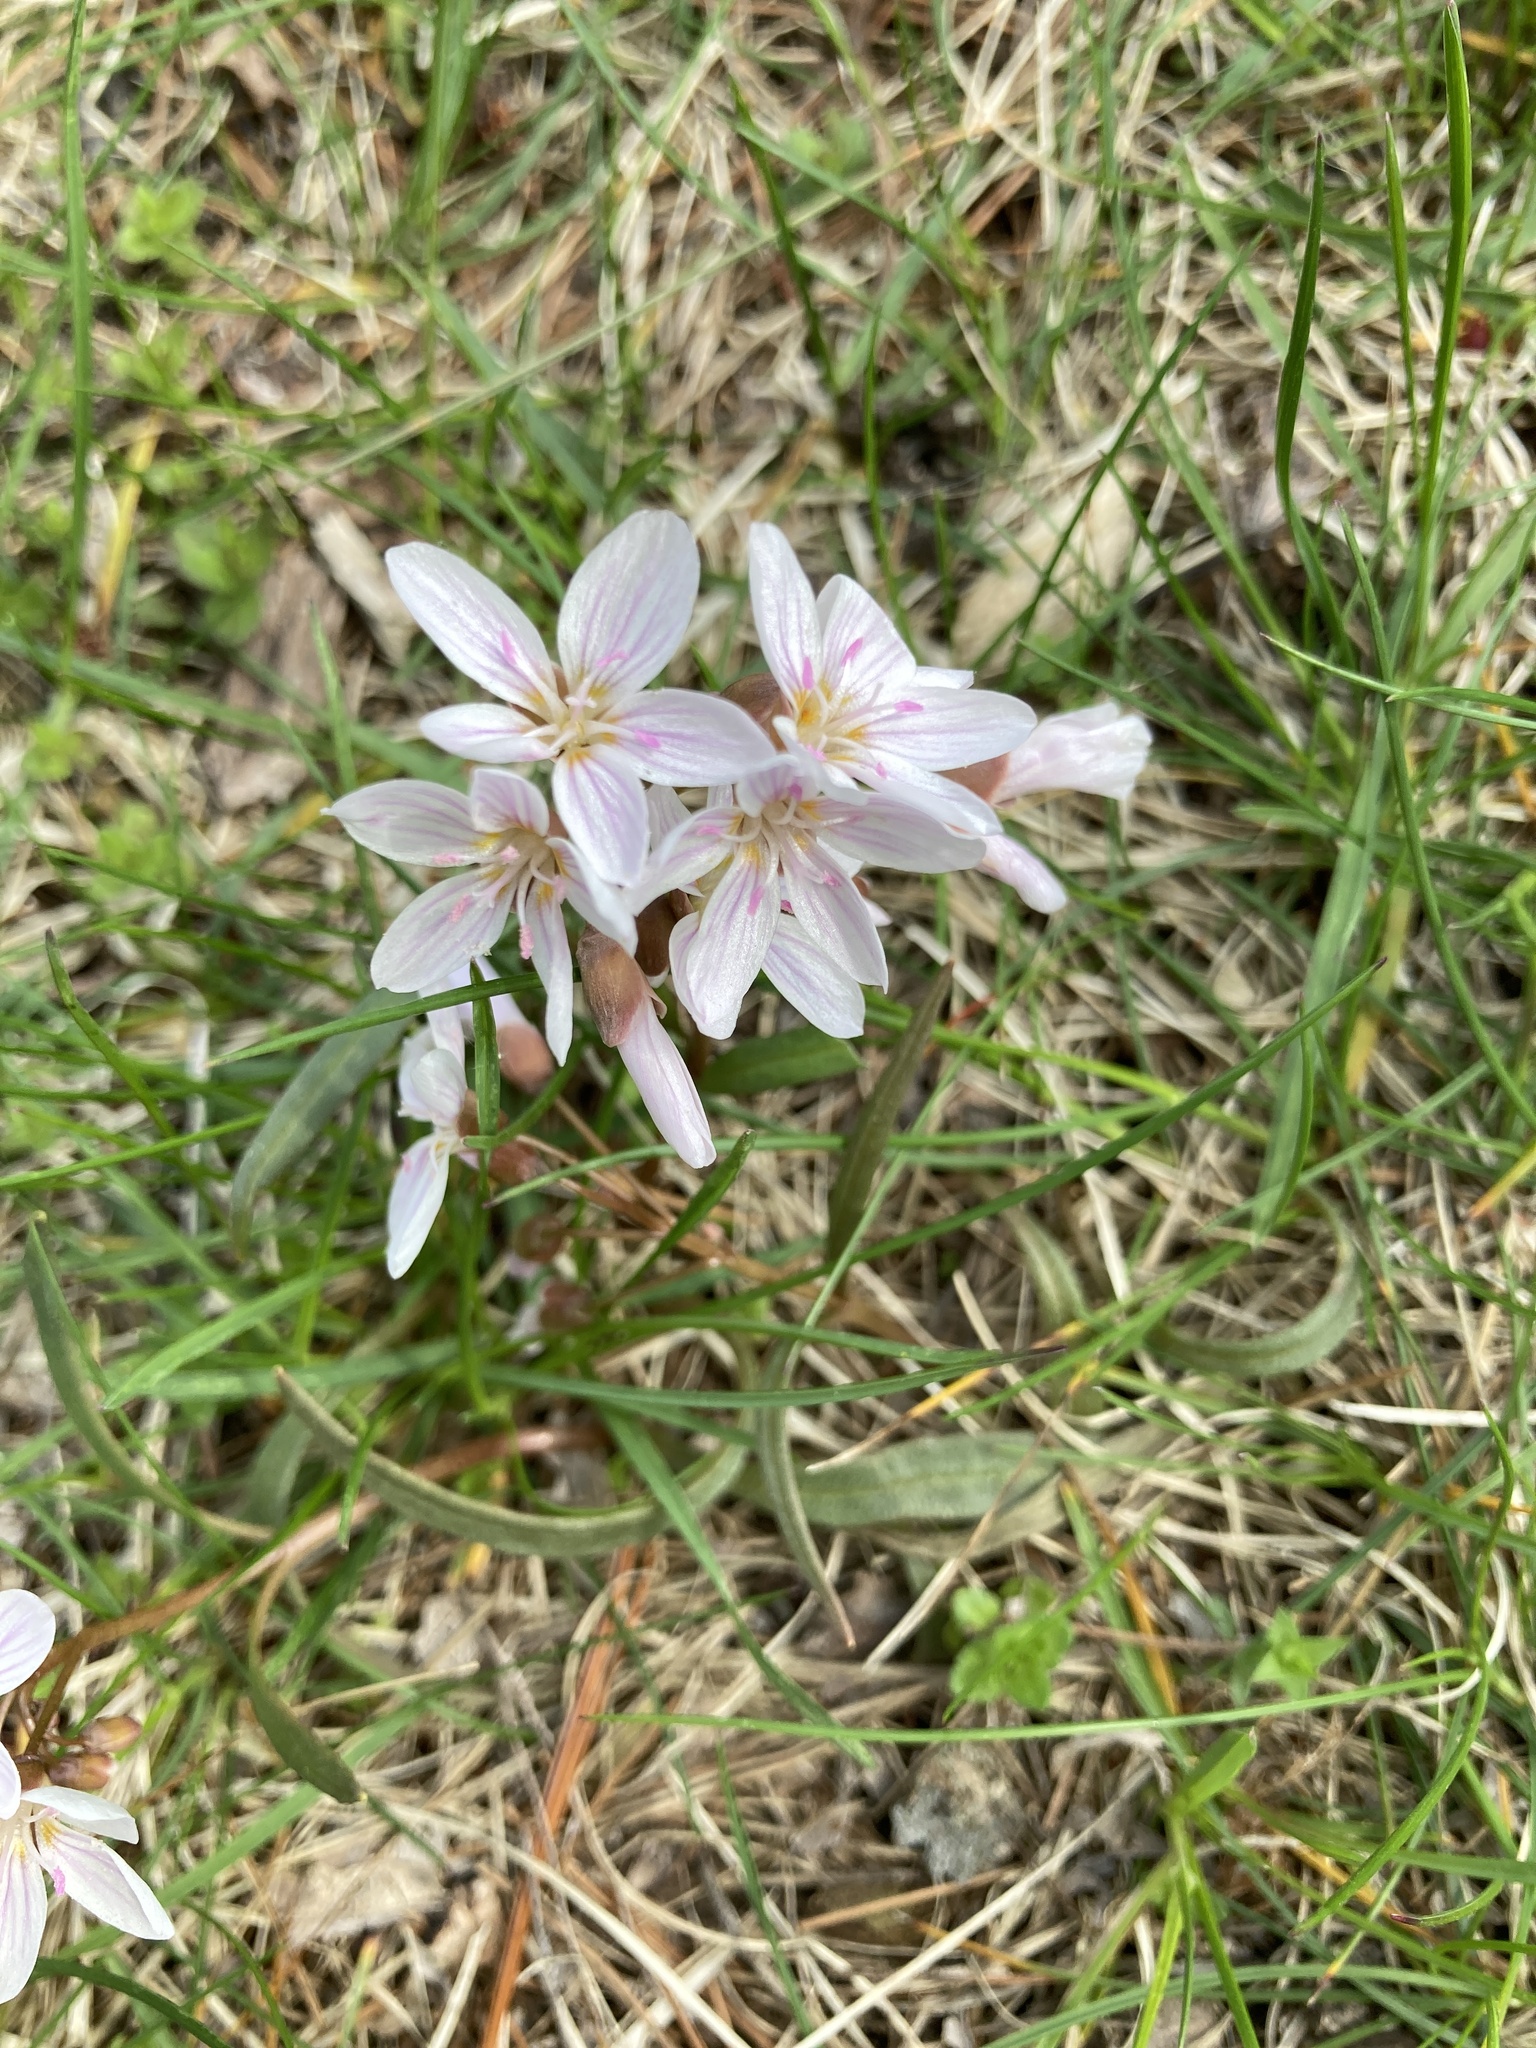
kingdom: Plantae
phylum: Tracheophyta
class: Magnoliopsida
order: Caryophyllales
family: Montiaceae
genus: Claytonia
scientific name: Claytonia virginica
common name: Virginia springbeauty
